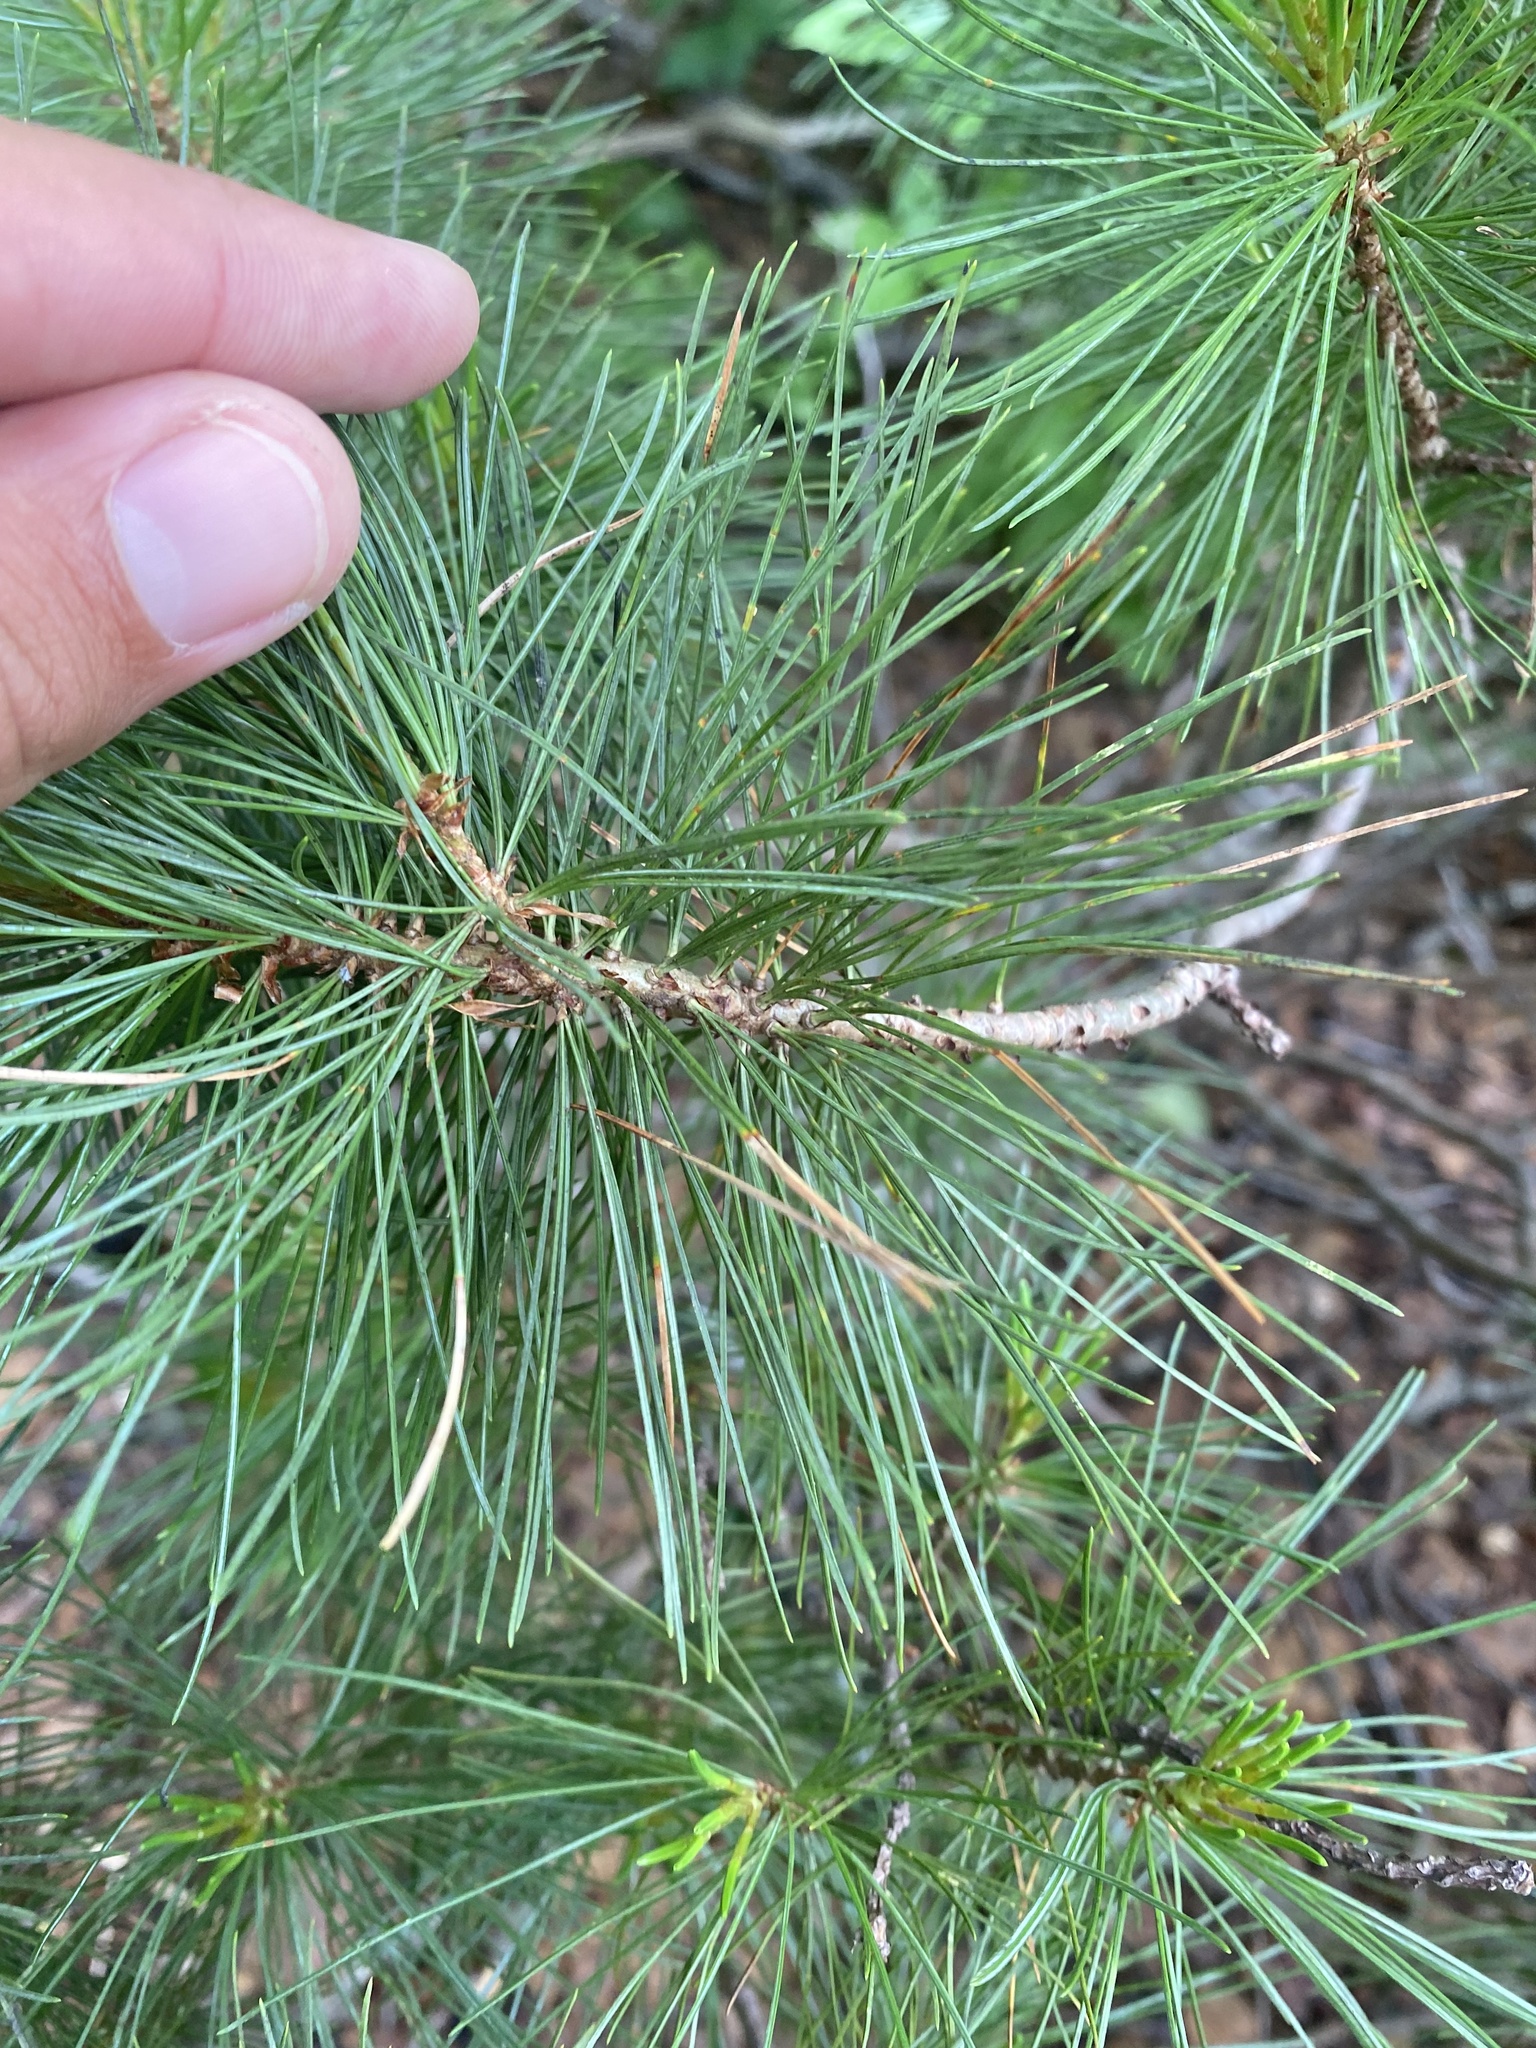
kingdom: Plantae
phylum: Tracheophyta
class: Pinopsida
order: Pinales
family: Pinaceae
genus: Pinus
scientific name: Pinus pumila
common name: Dwarf siberian pine
